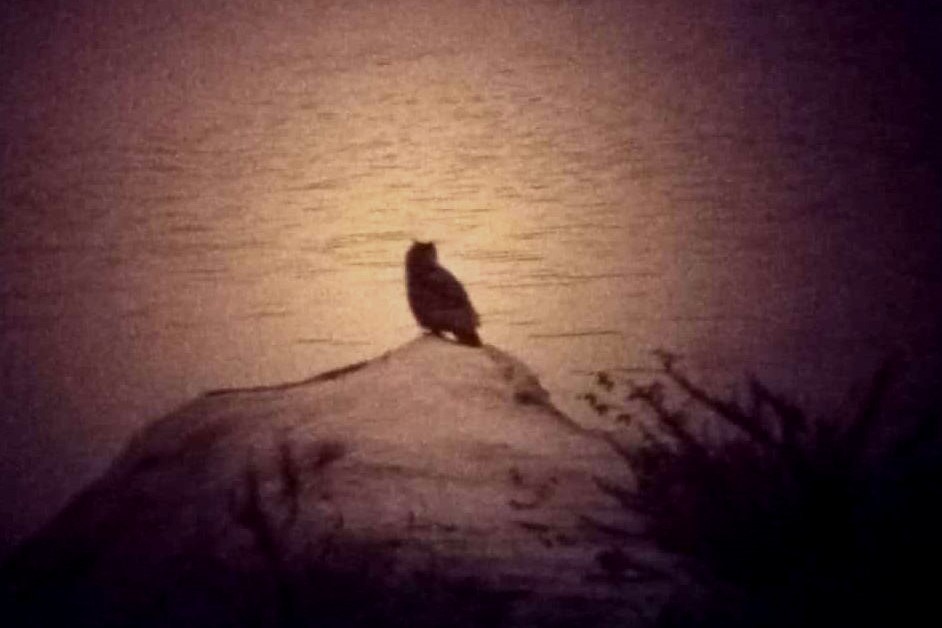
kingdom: Animalia
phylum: Chordata
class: Aves
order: Strigiformes
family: Strigidae
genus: Bubo
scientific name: Bubo bubo
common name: Eurasian eagle-owl
